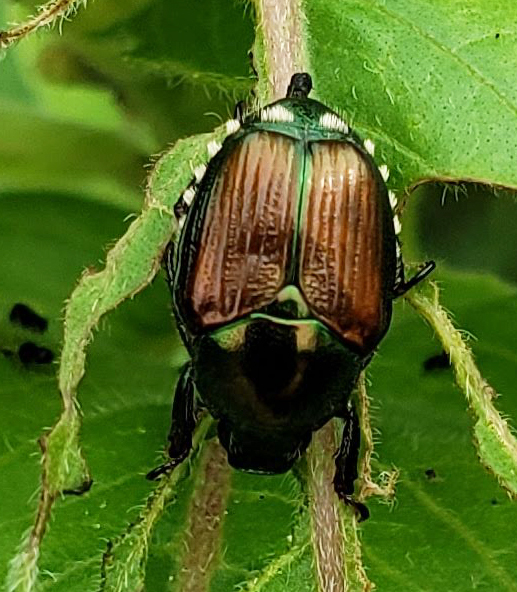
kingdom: Animalia
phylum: Arthropoda
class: Insecta
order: Coleoptera
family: Scarabaeidae
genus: Popillia
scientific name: Popillia japonica
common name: Japanese beetle
